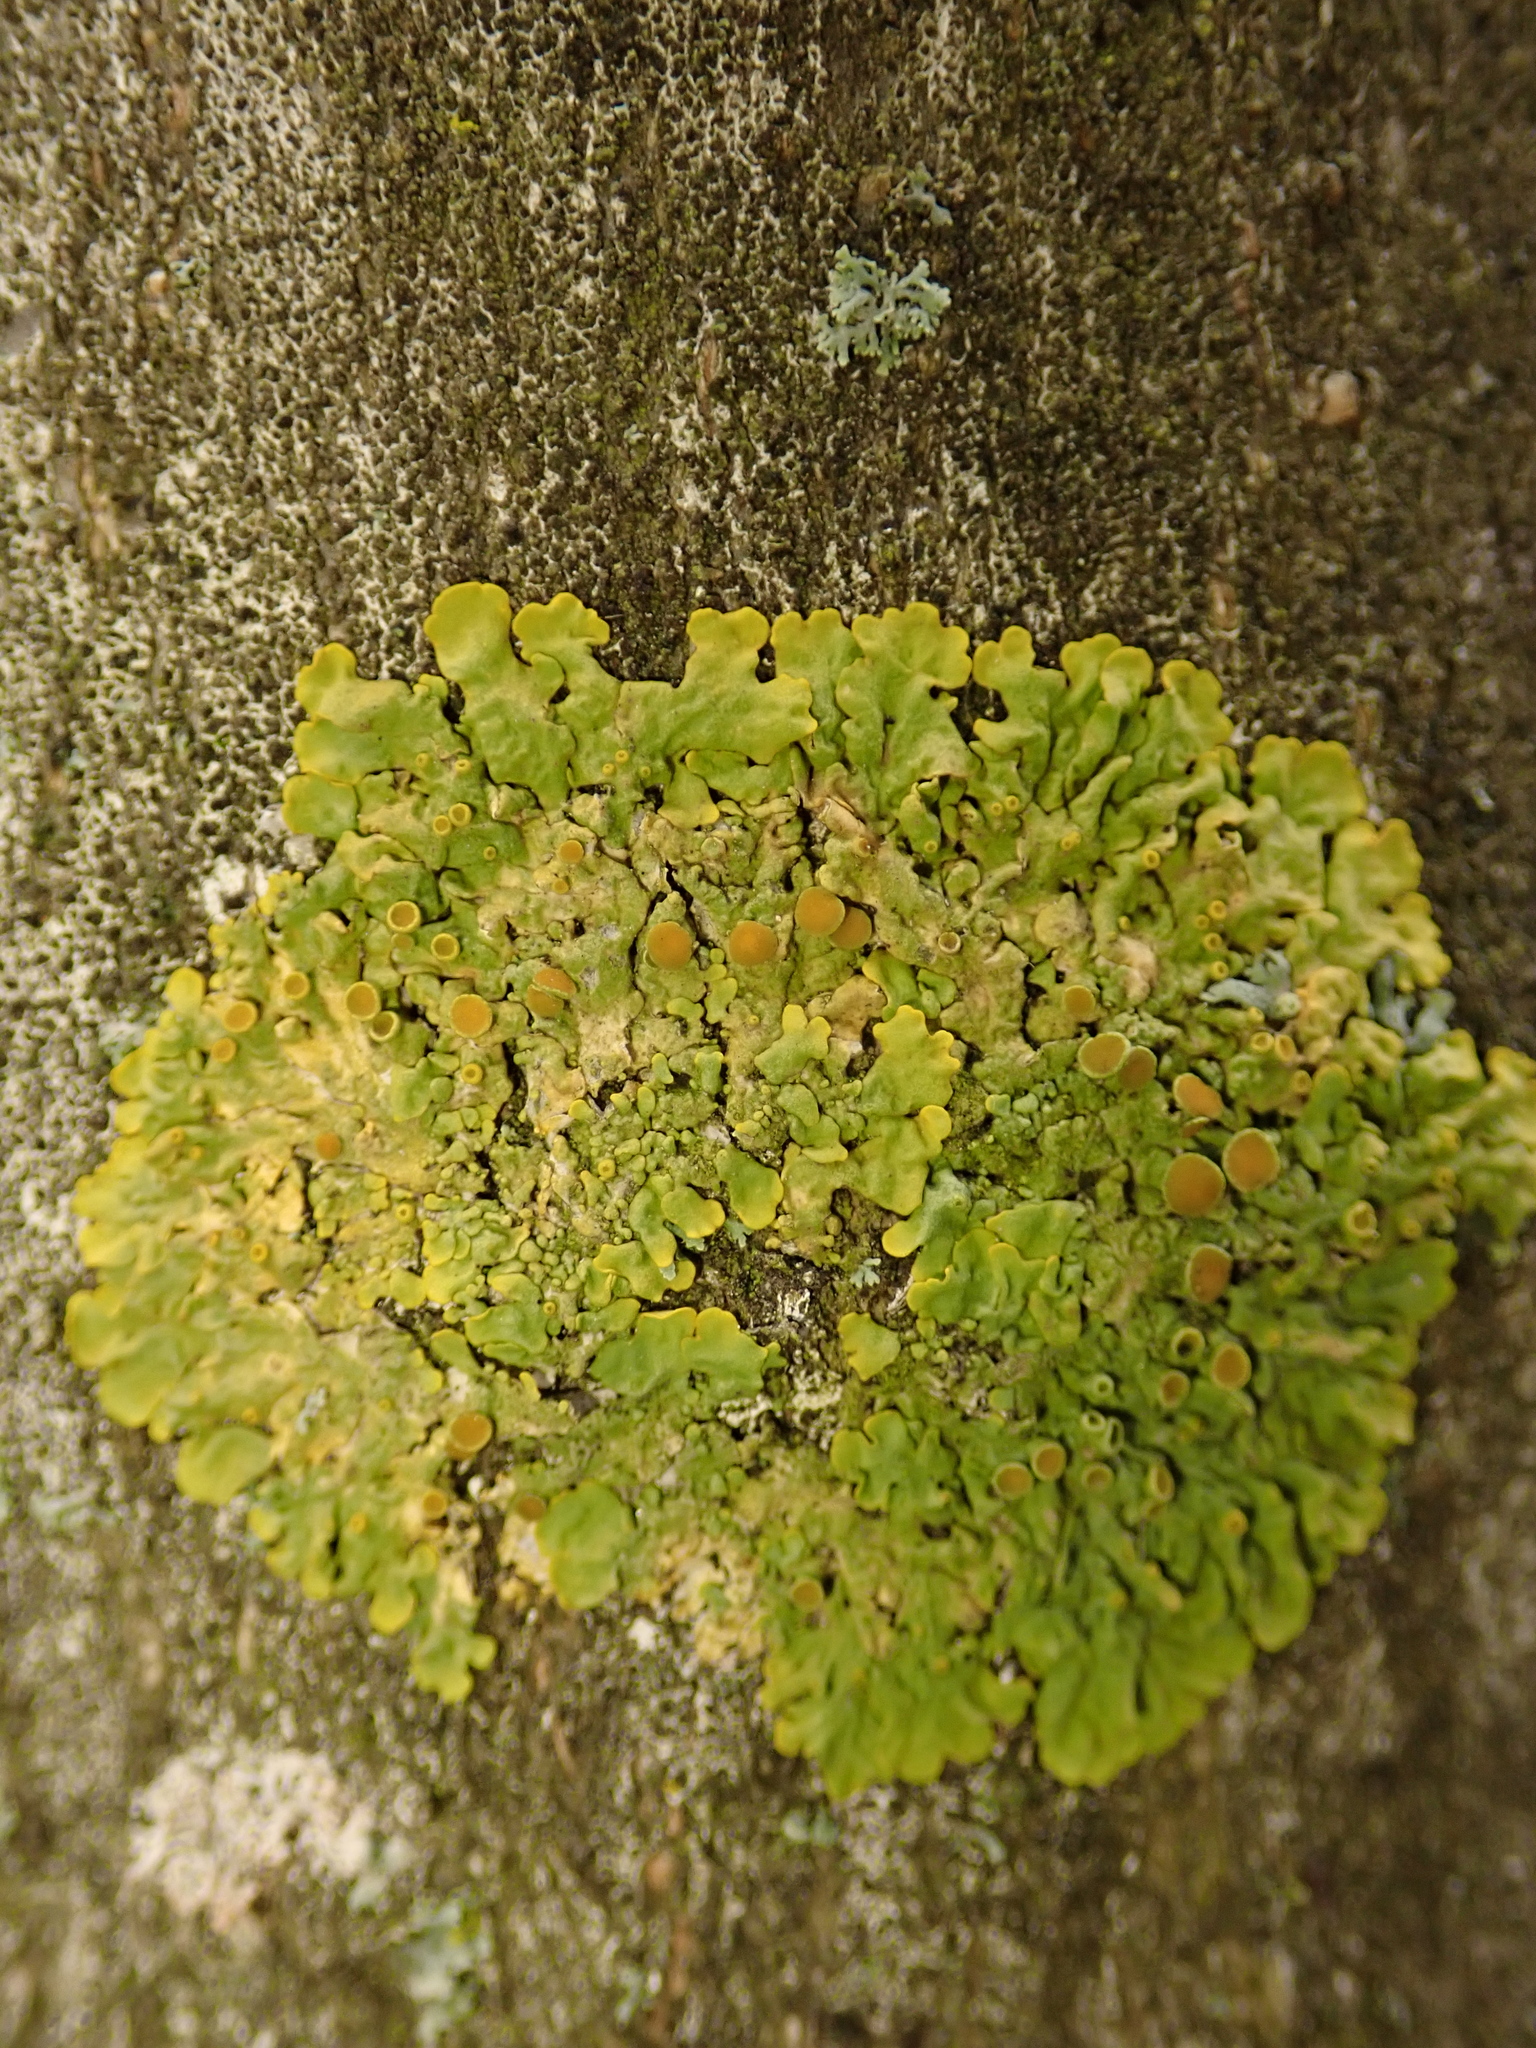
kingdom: Fungi
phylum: Ascomycota
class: Lecanoromycetes
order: Teloschistales
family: Teloschistaceae
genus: Xanthoria
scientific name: Xanthoria parietina
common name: Common orange lichen
